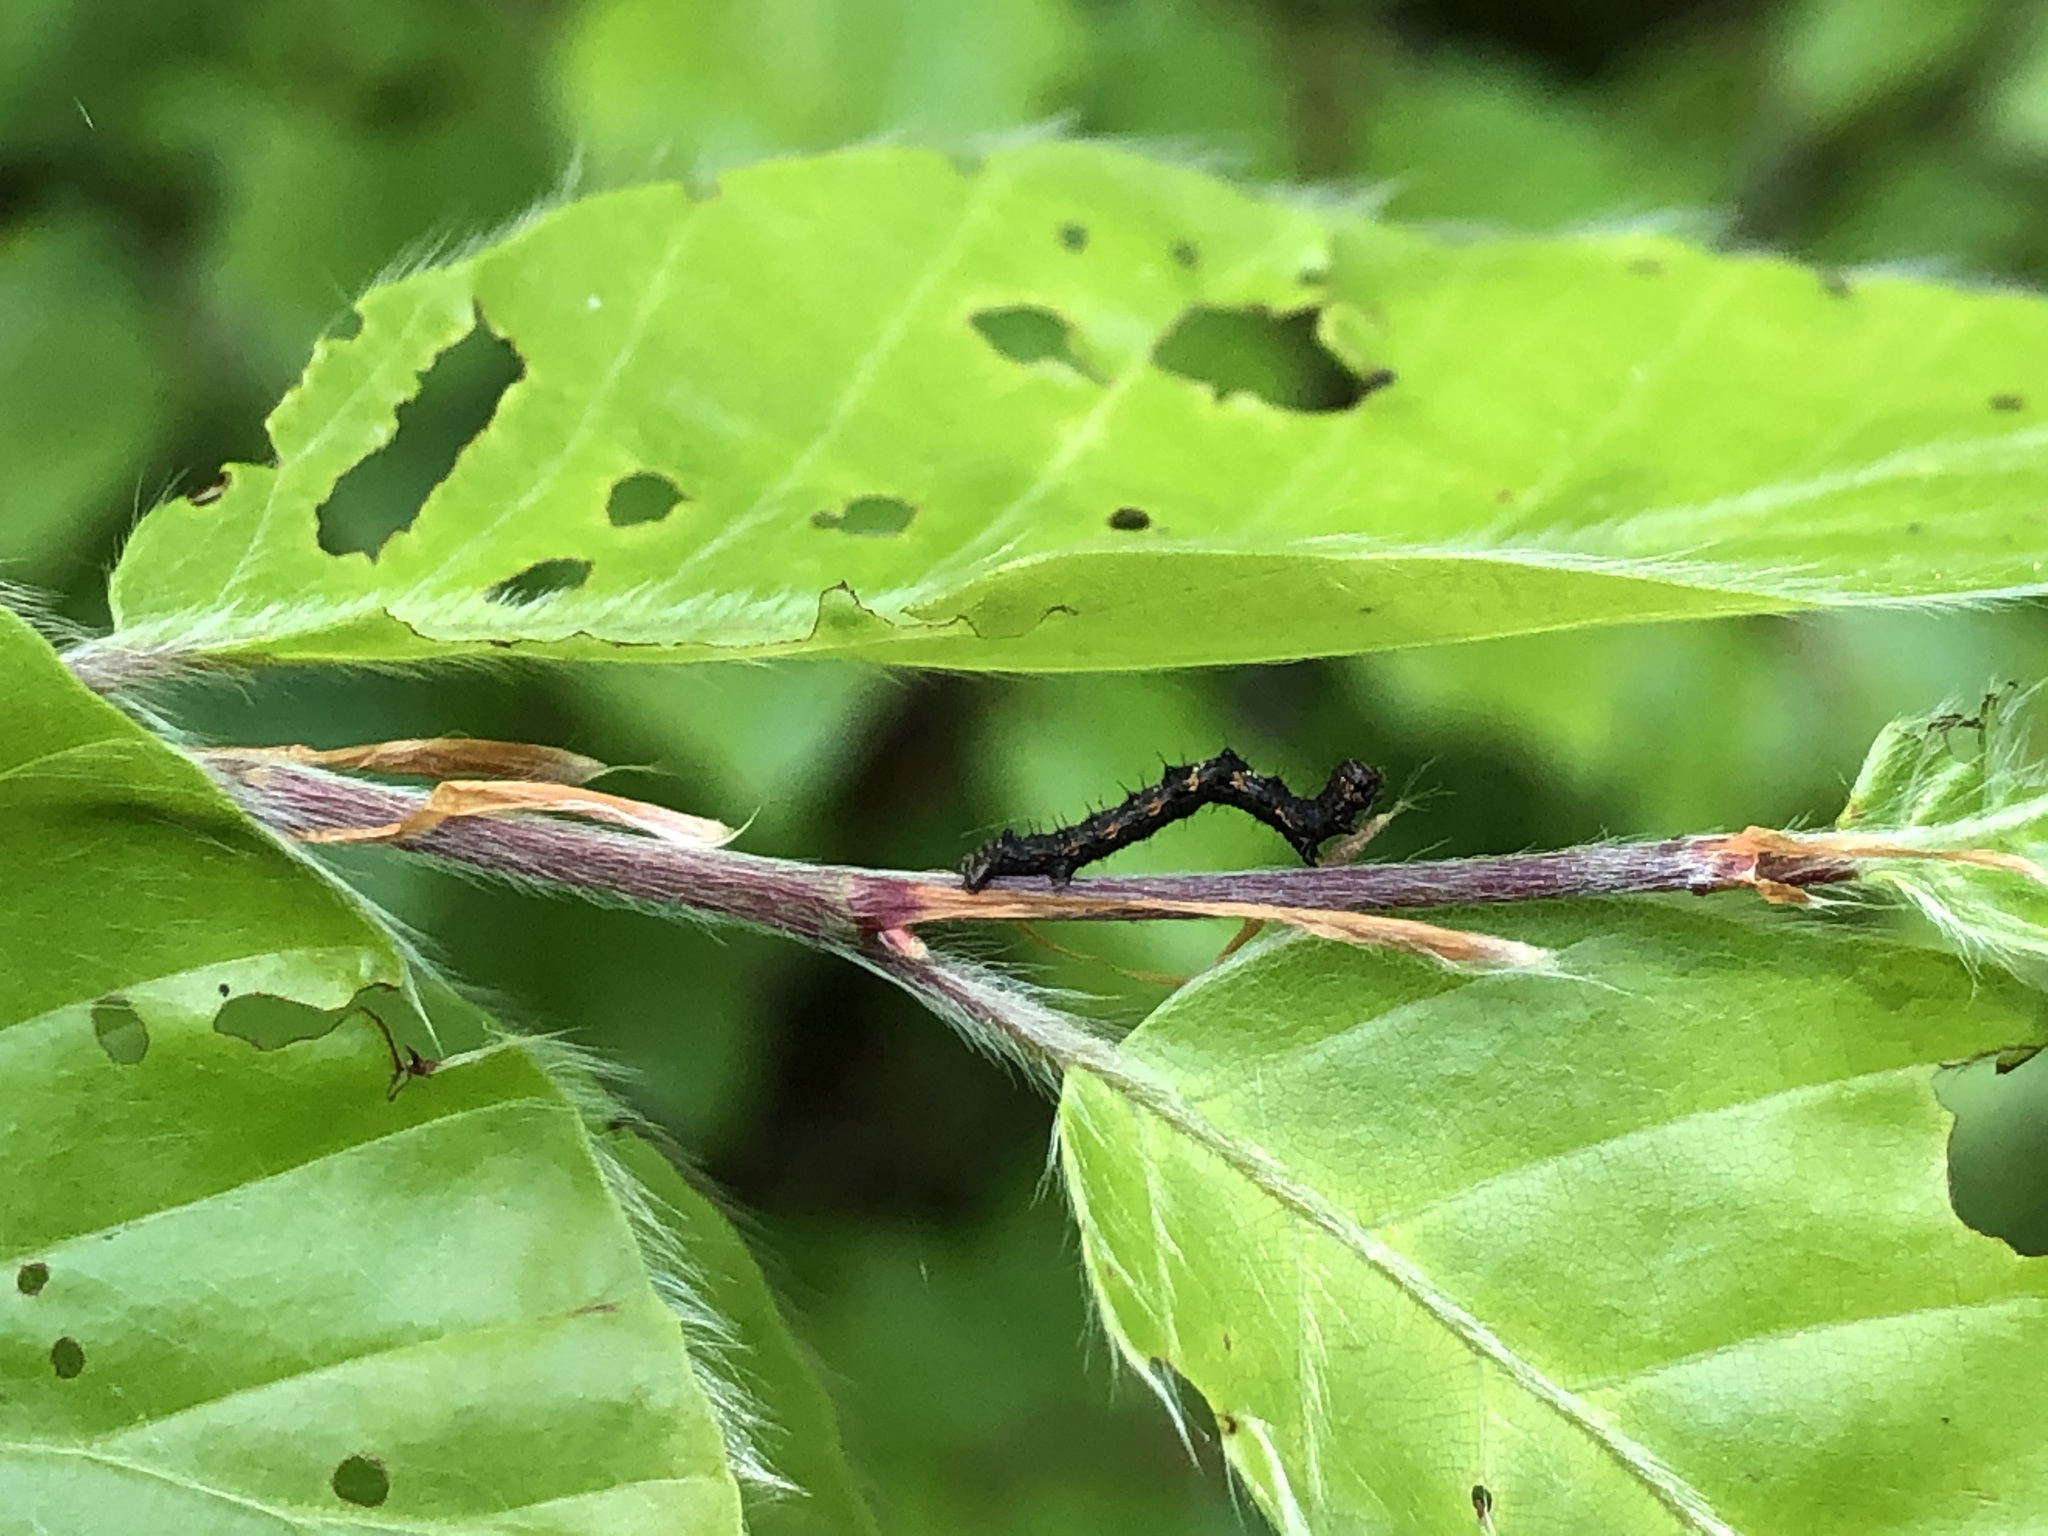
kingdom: Animalia
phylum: Arthropoda
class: Insecta
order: Lepidoptera
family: Geometridae
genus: Phigalia
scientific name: Phigalia pilosaria
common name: Pale brindled beauty
